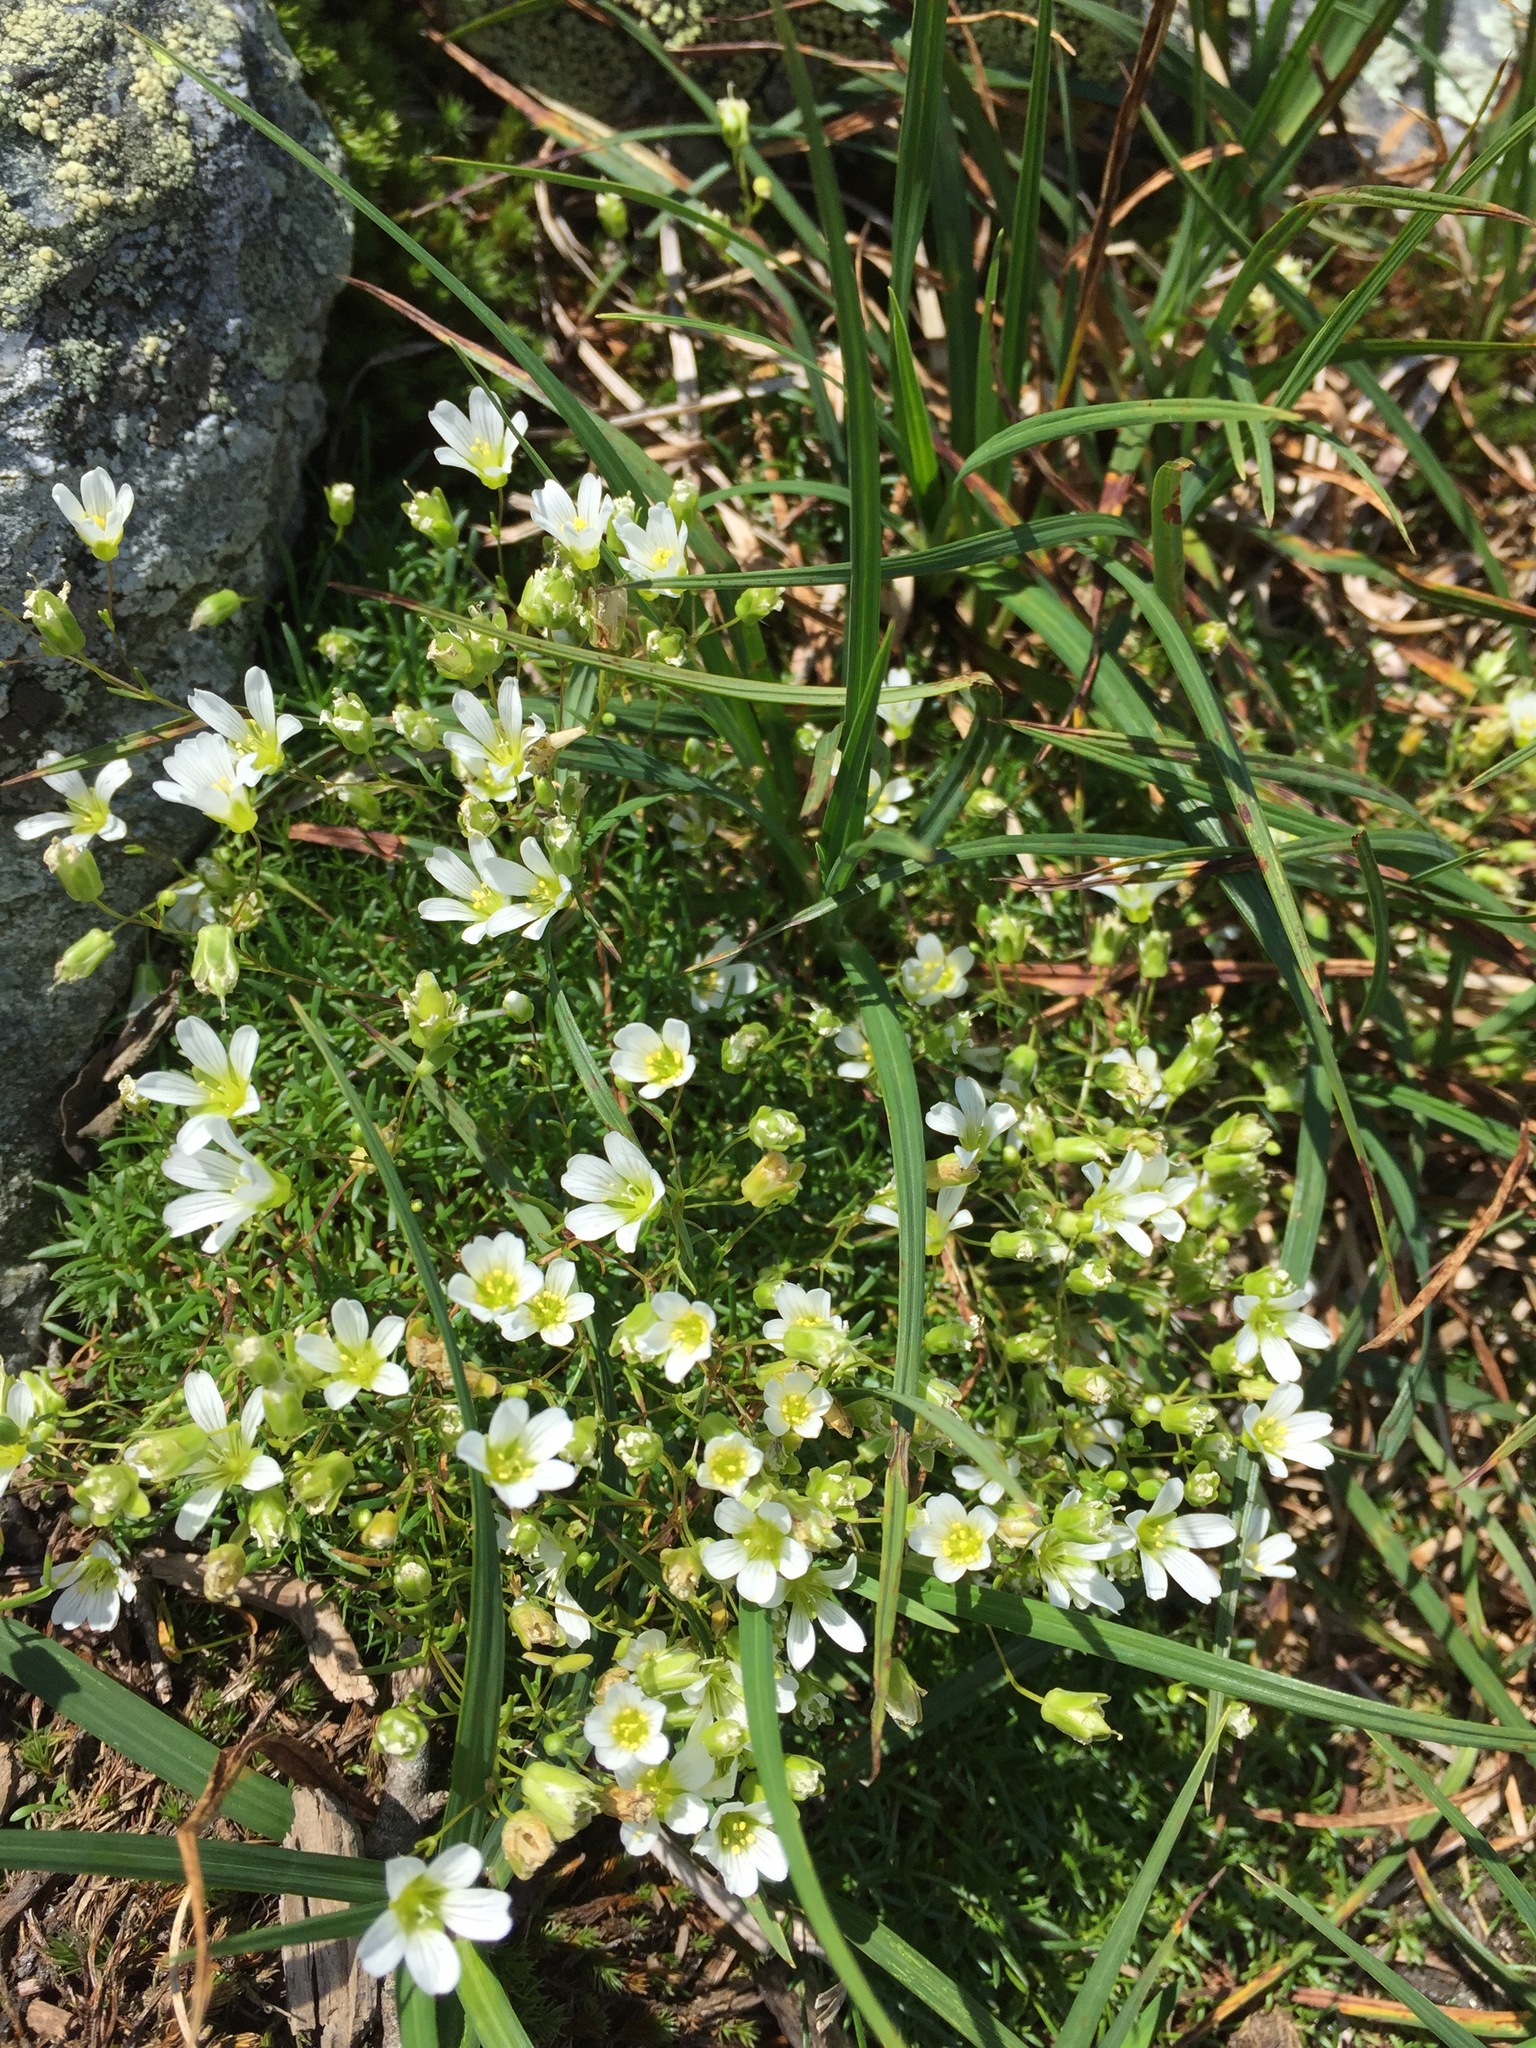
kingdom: Plantae
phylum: Tracheophyta
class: Magnoliopsida
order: Caryophyllales
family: Caryophyllaceae
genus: Geocarpon
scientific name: Geocarpon groenlandicum
